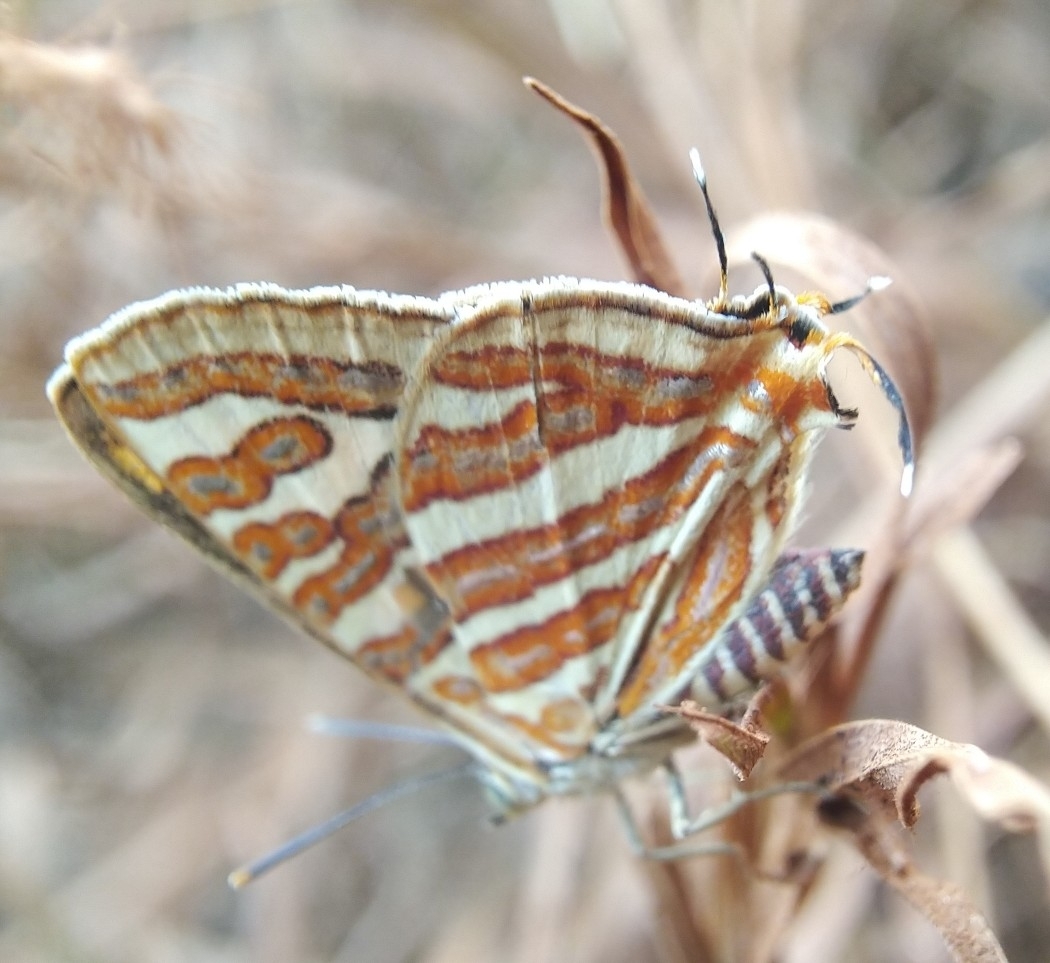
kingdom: Animalia
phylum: Arthropoda
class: Insecta
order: Lepidoptera
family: Lycaenidae
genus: Cigaritis
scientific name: Cigaritis vulcanus
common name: Common silverline
